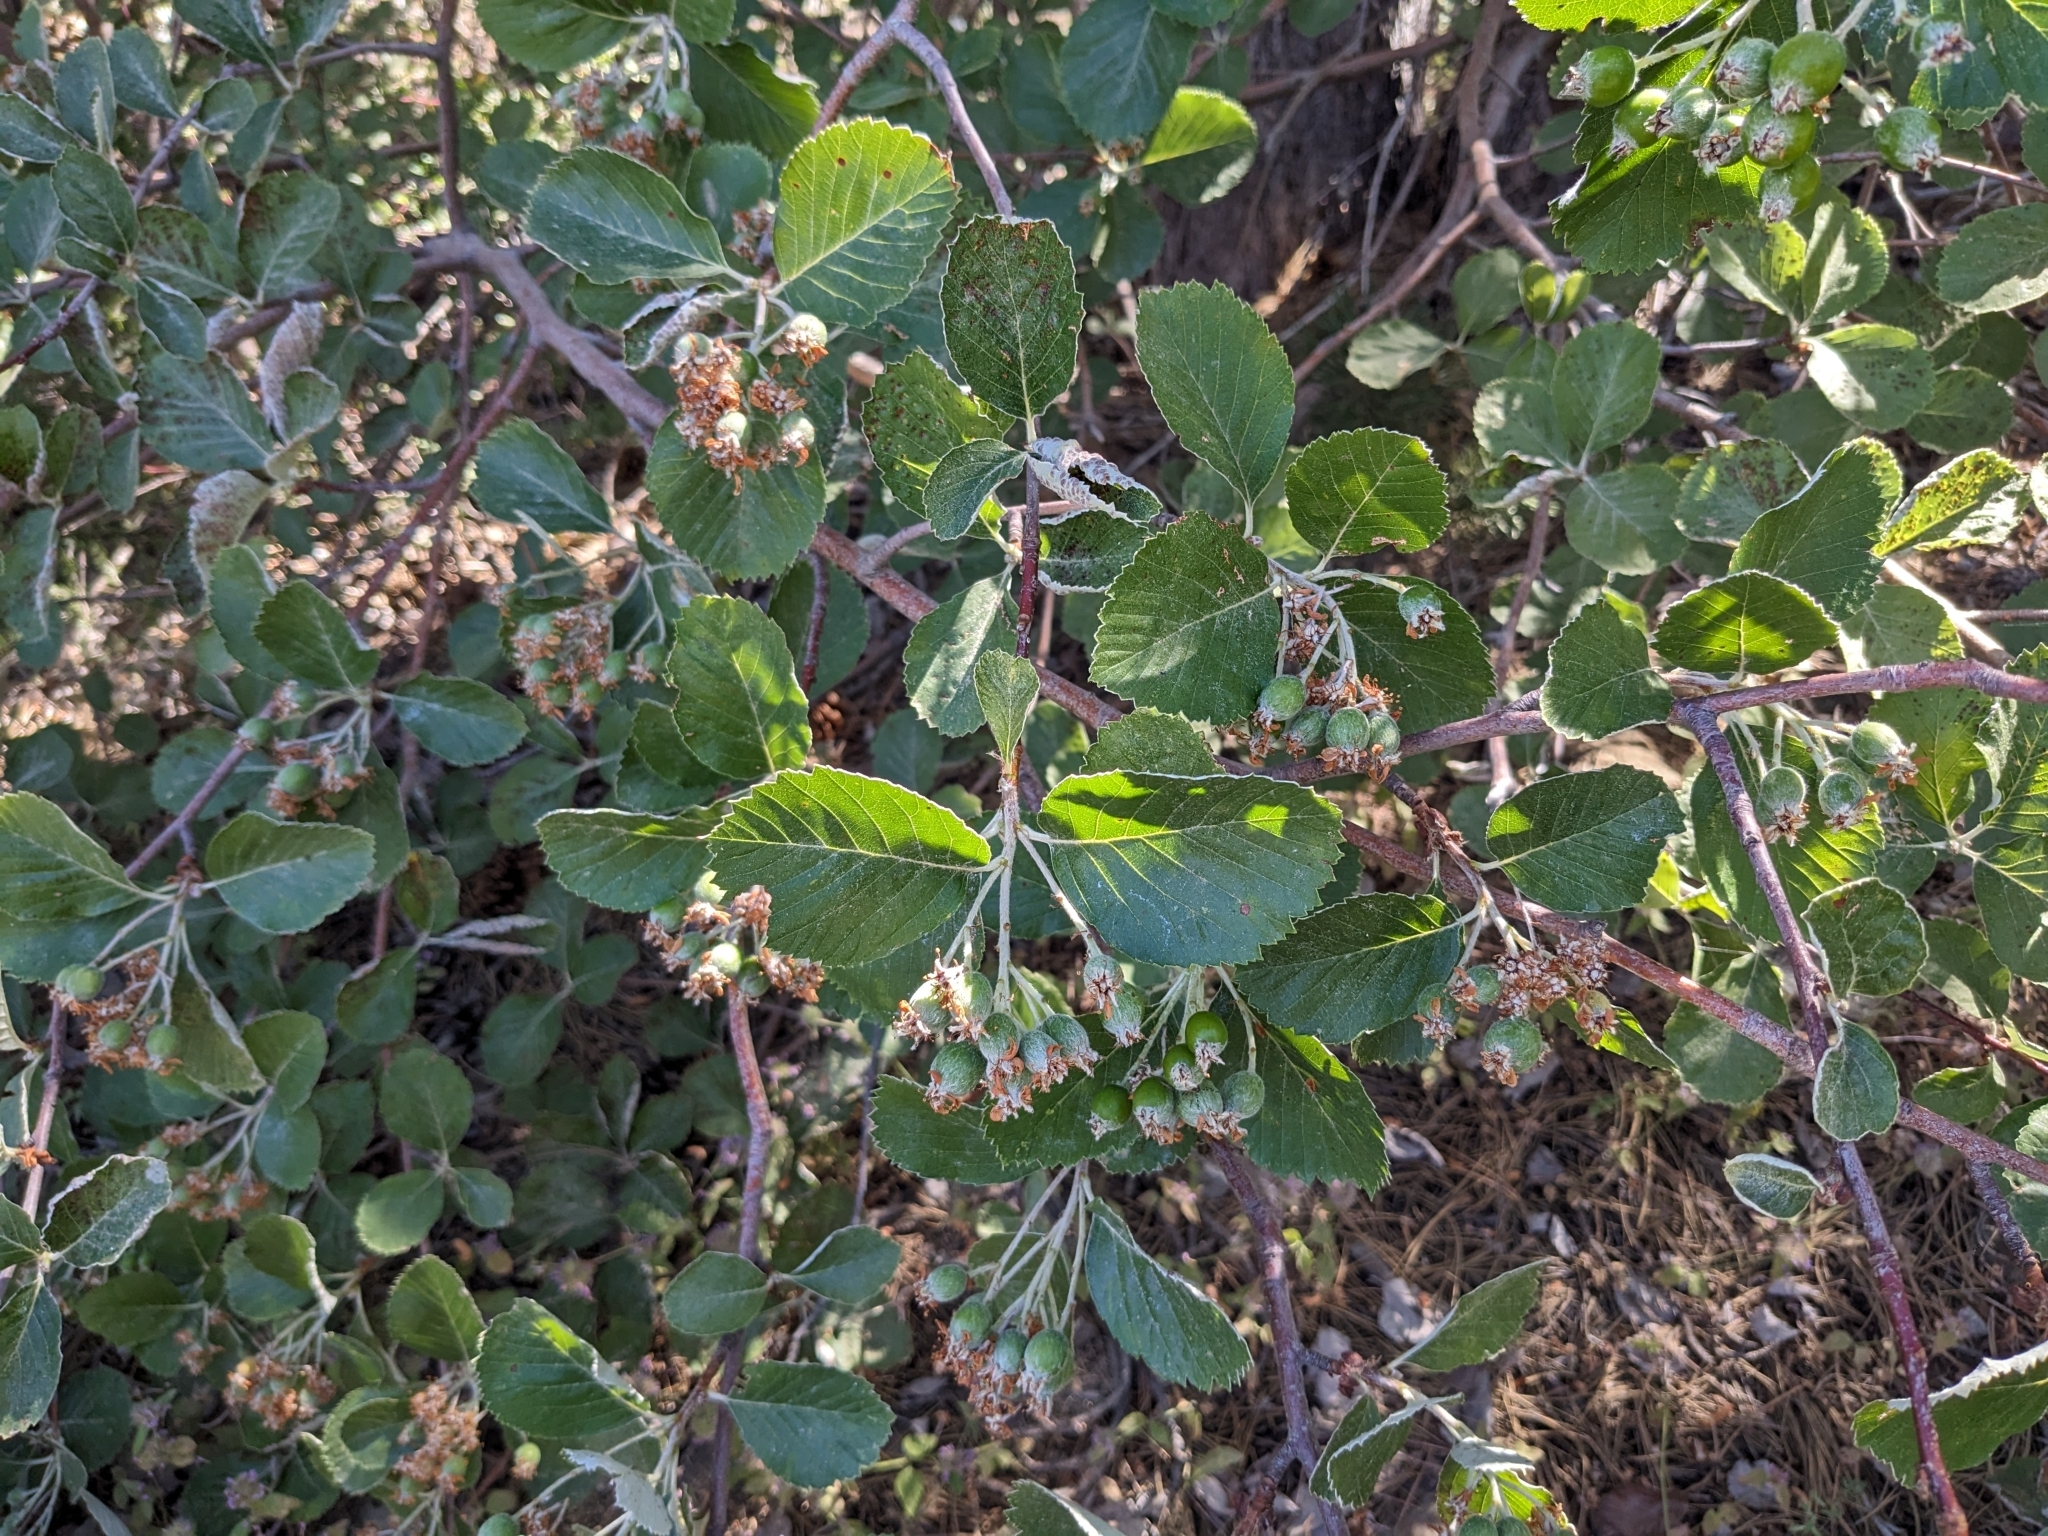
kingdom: Plantae
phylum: Tracheophyta
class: Magnoliopsida
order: Rosales
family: Rosaceae
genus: Aria
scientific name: Aria graeca
